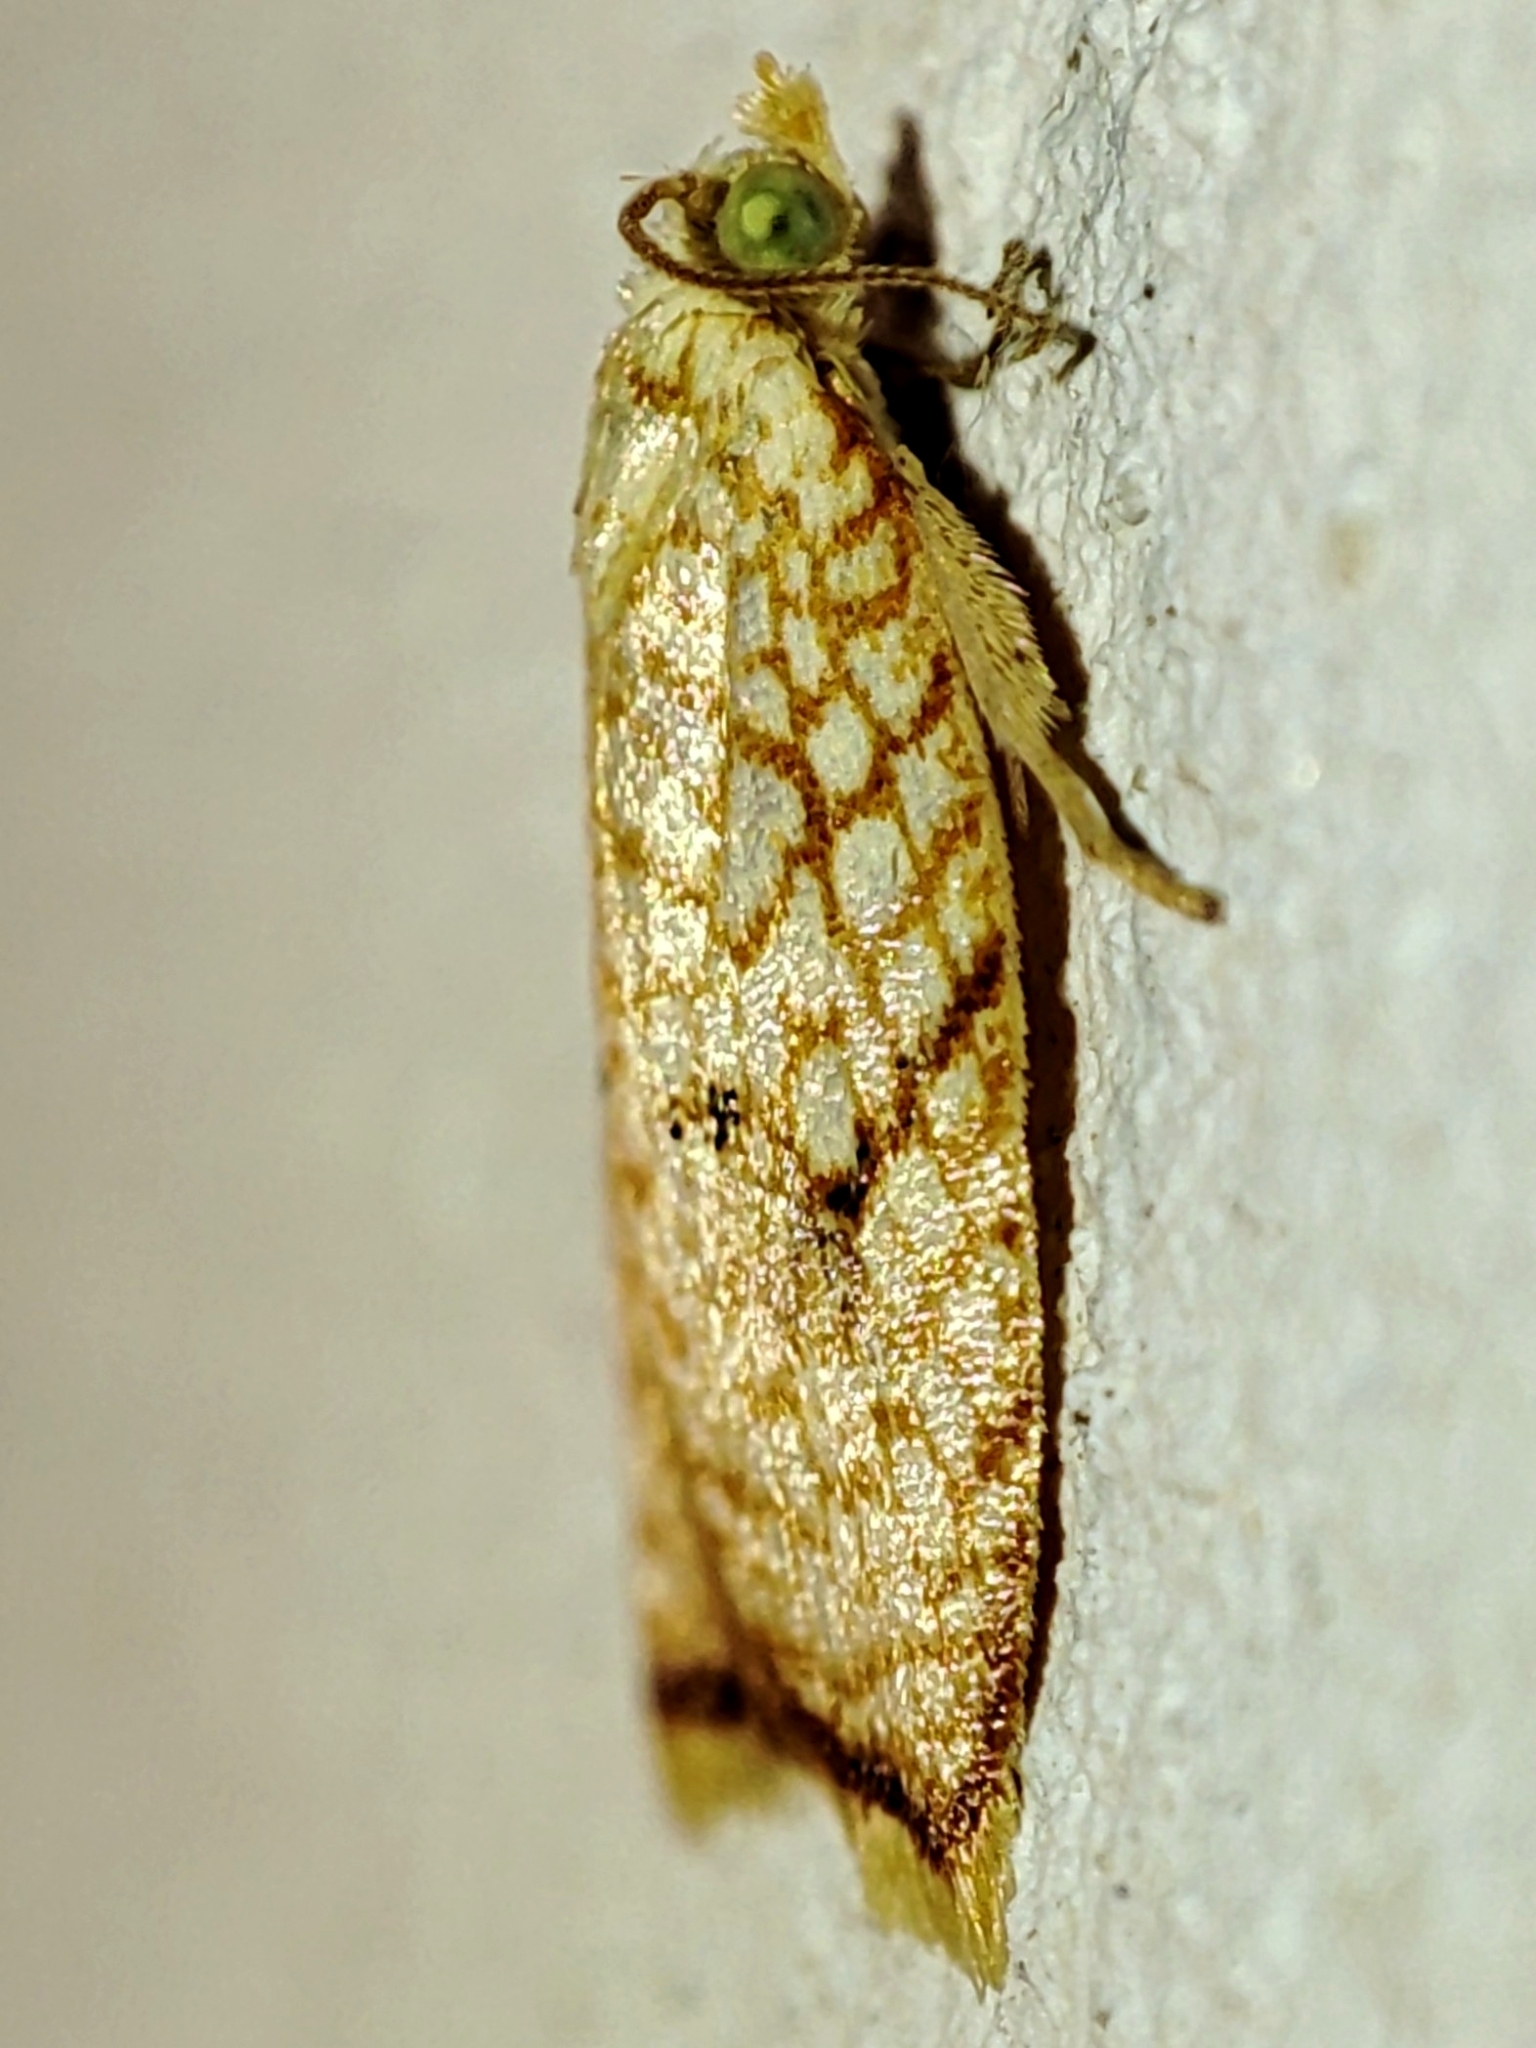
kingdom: Animalia
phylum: Arthropoda
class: Insecta
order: Lepidoptera
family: Tortricidae
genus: Acleris
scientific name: Acleris forsskaleana
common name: Maple button
